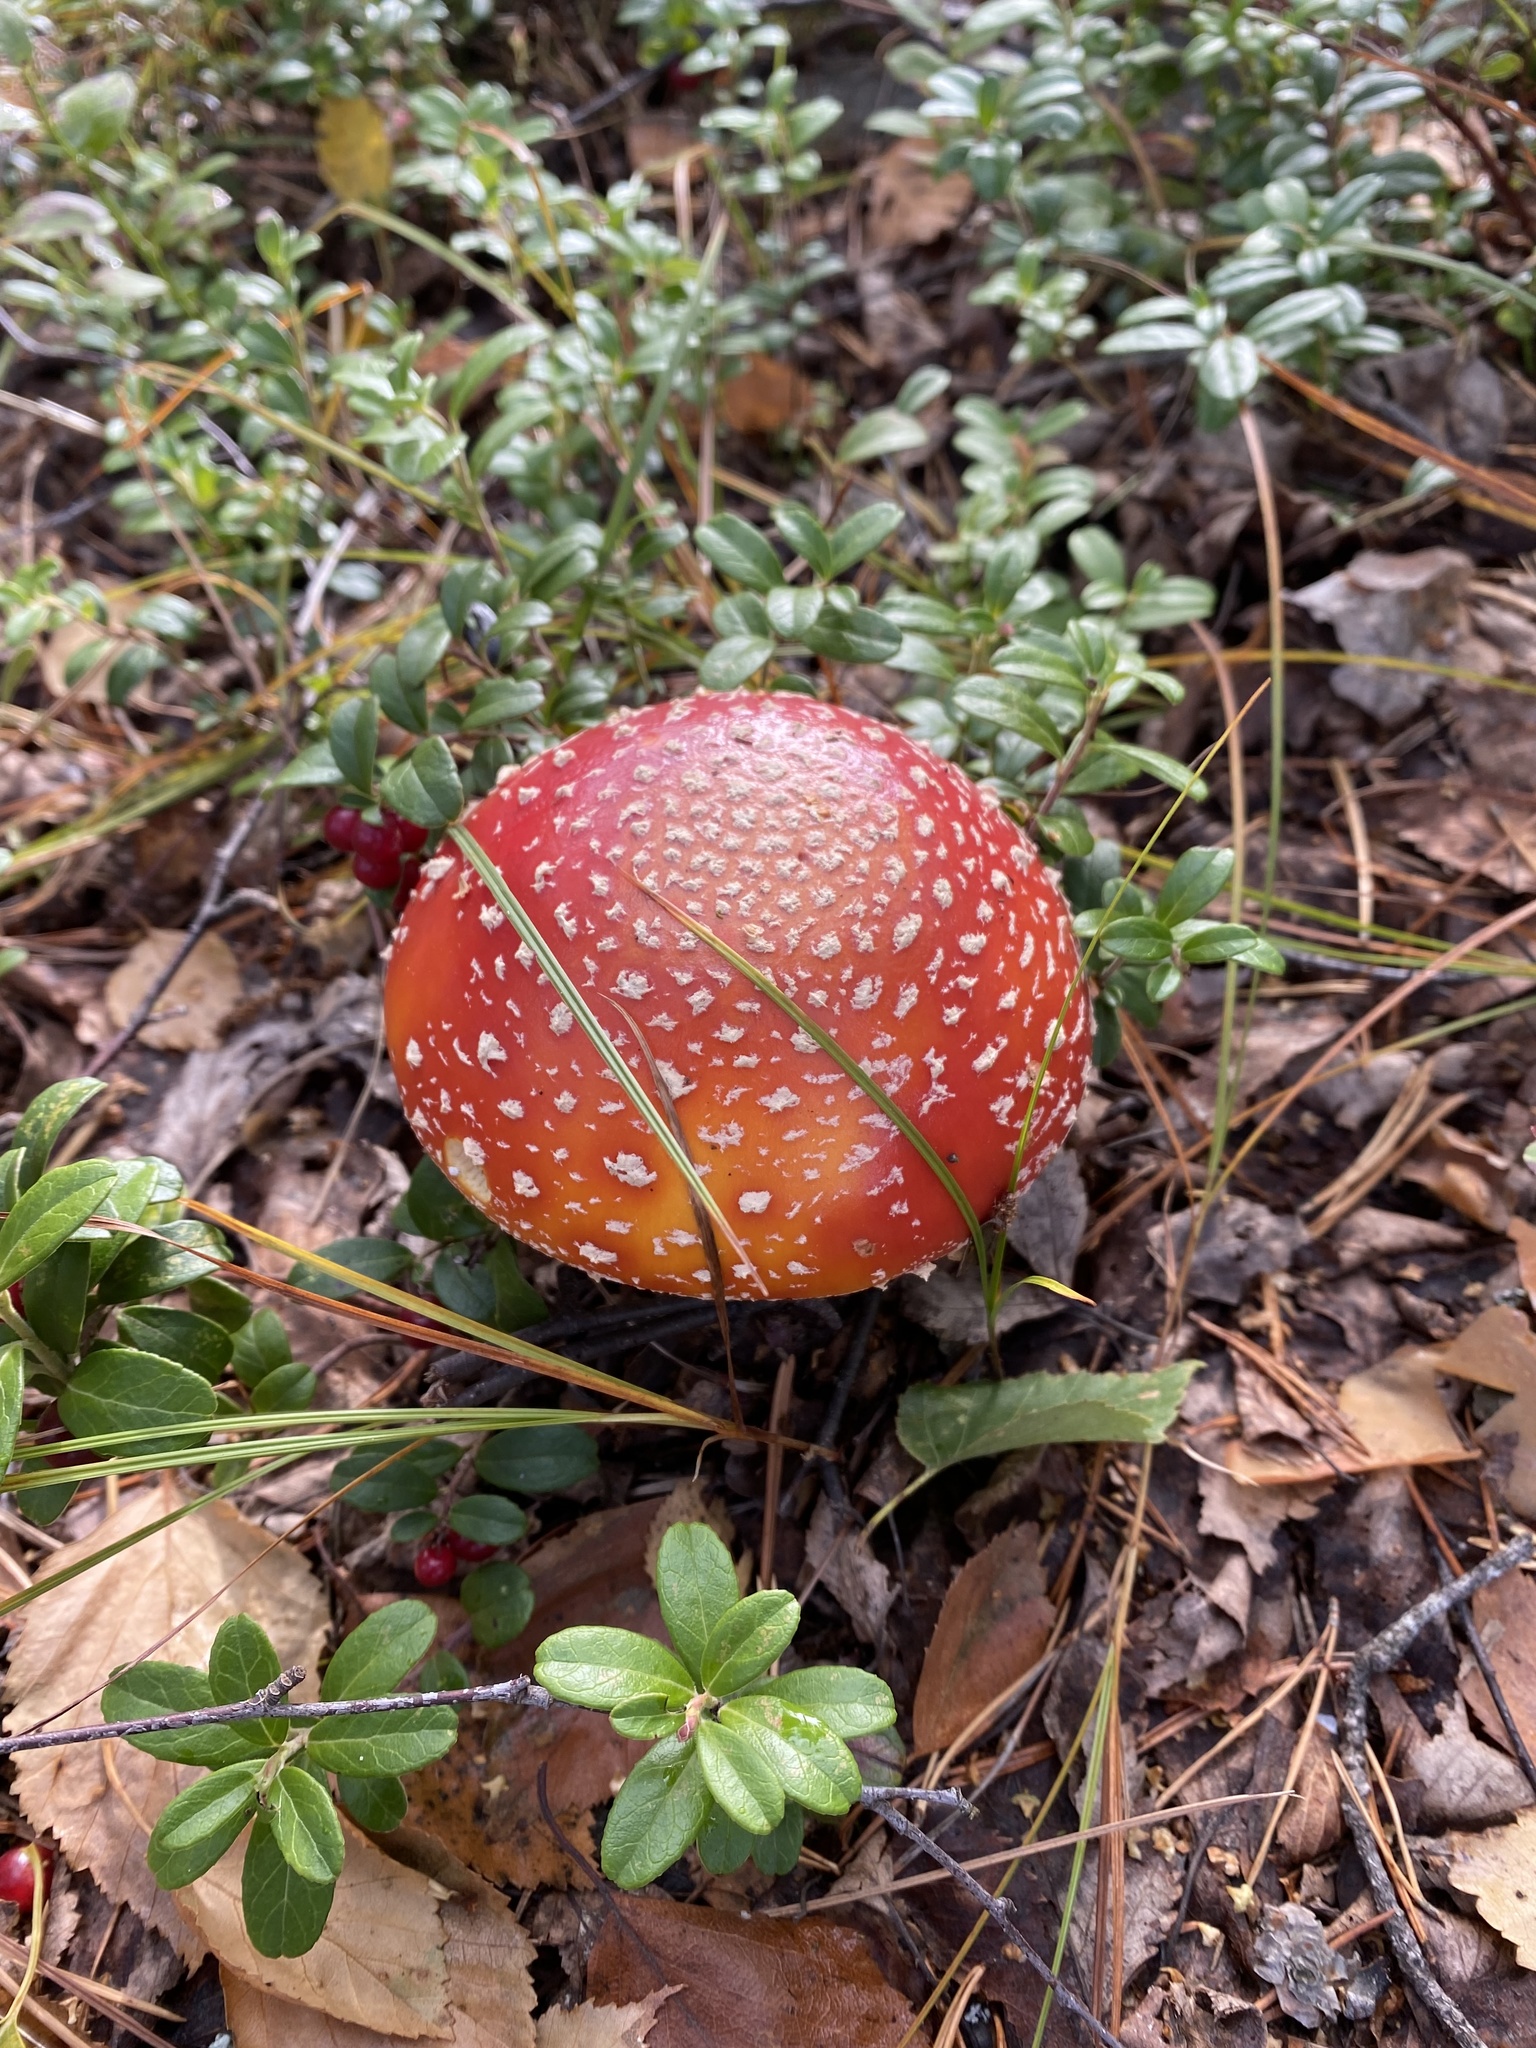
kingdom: Fungi
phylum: Basidiomycota
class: Agaricomycetes
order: Agaricales
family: Amanitaceae
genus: Amanita
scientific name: Amanita muscaria
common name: Fly agaric
